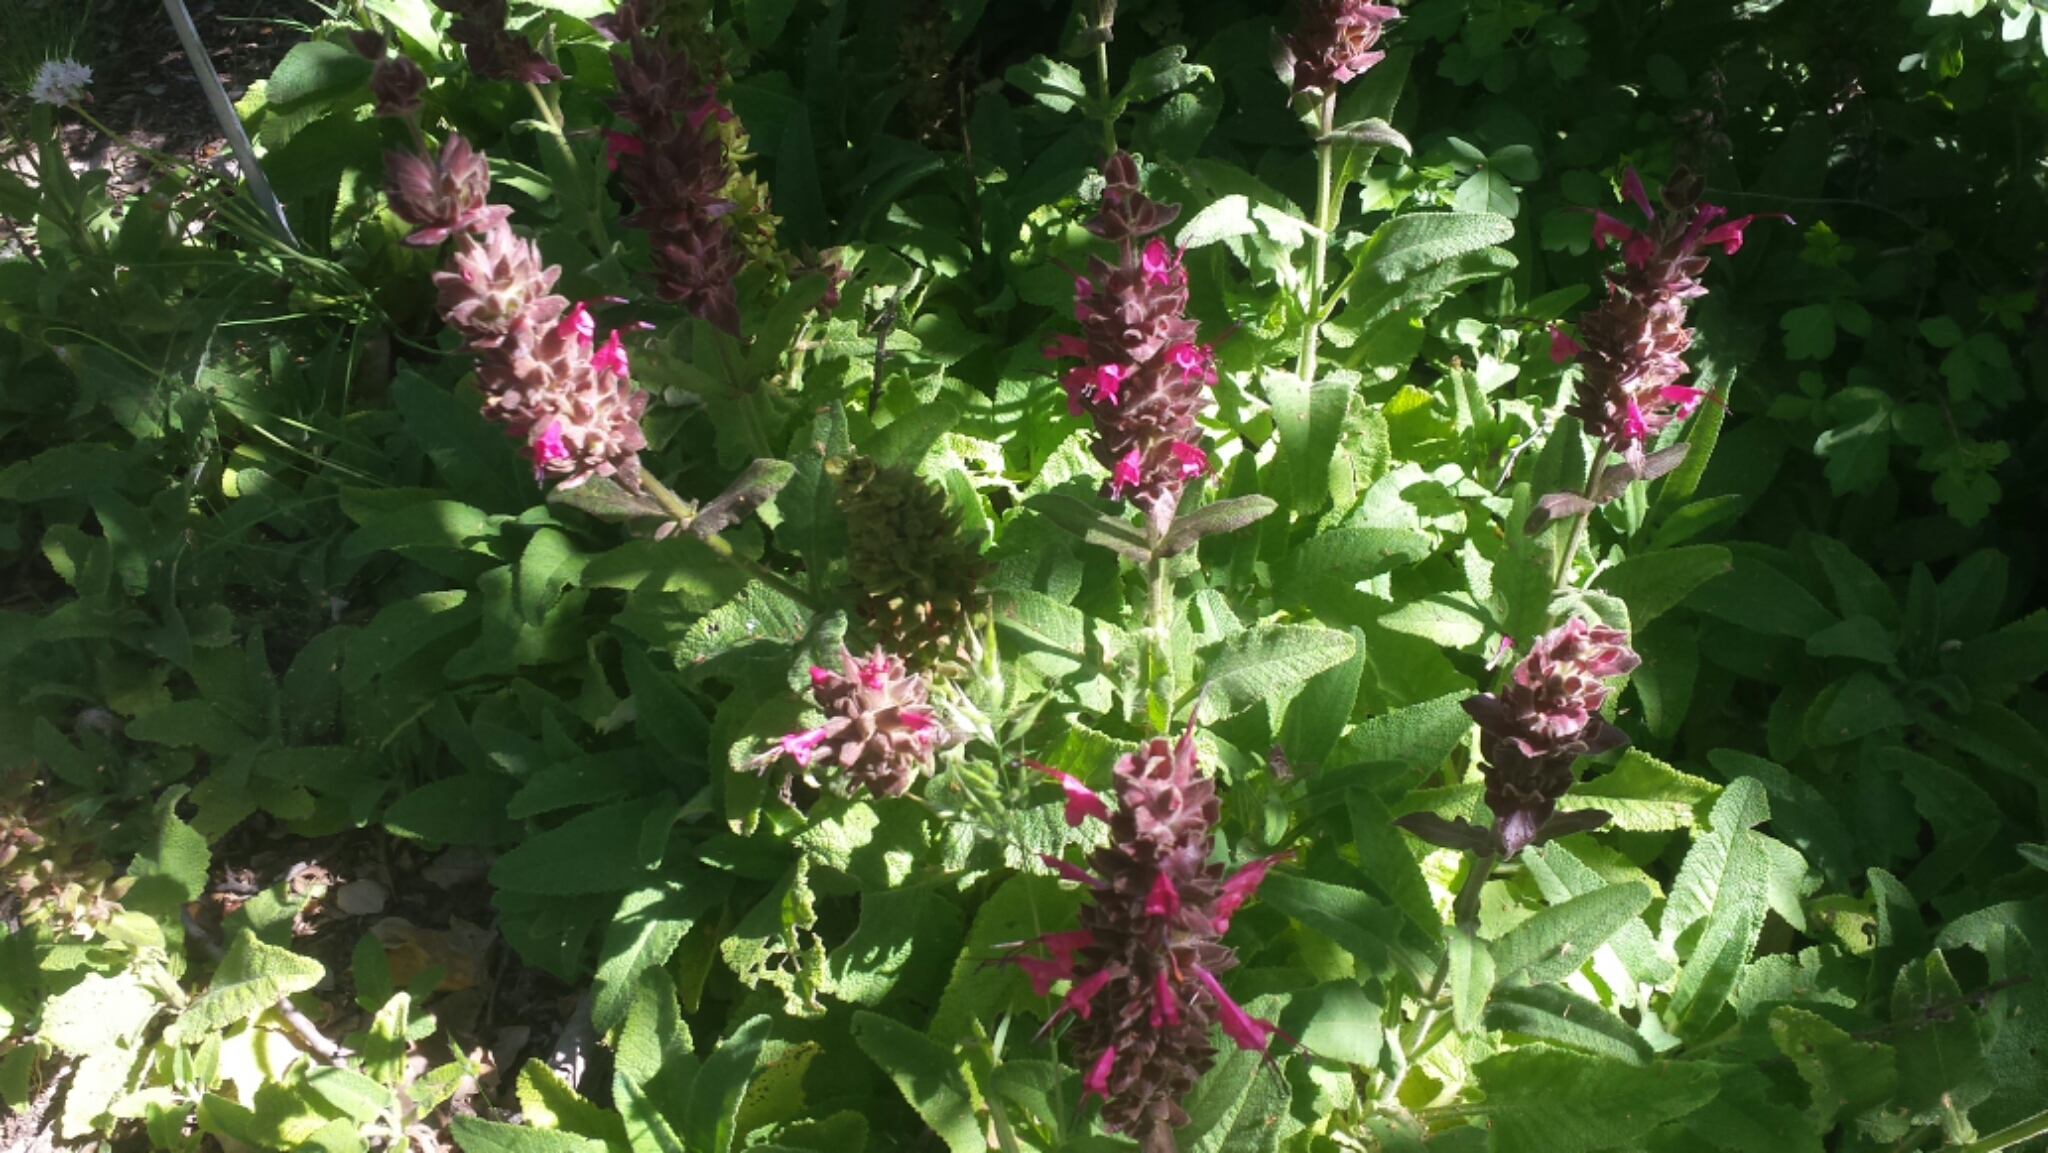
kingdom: Plantae
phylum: Tracheophyta
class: Magnoliopsida
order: Lamiales
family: Lamiaceae
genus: Salvia
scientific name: Salvia spathacea
